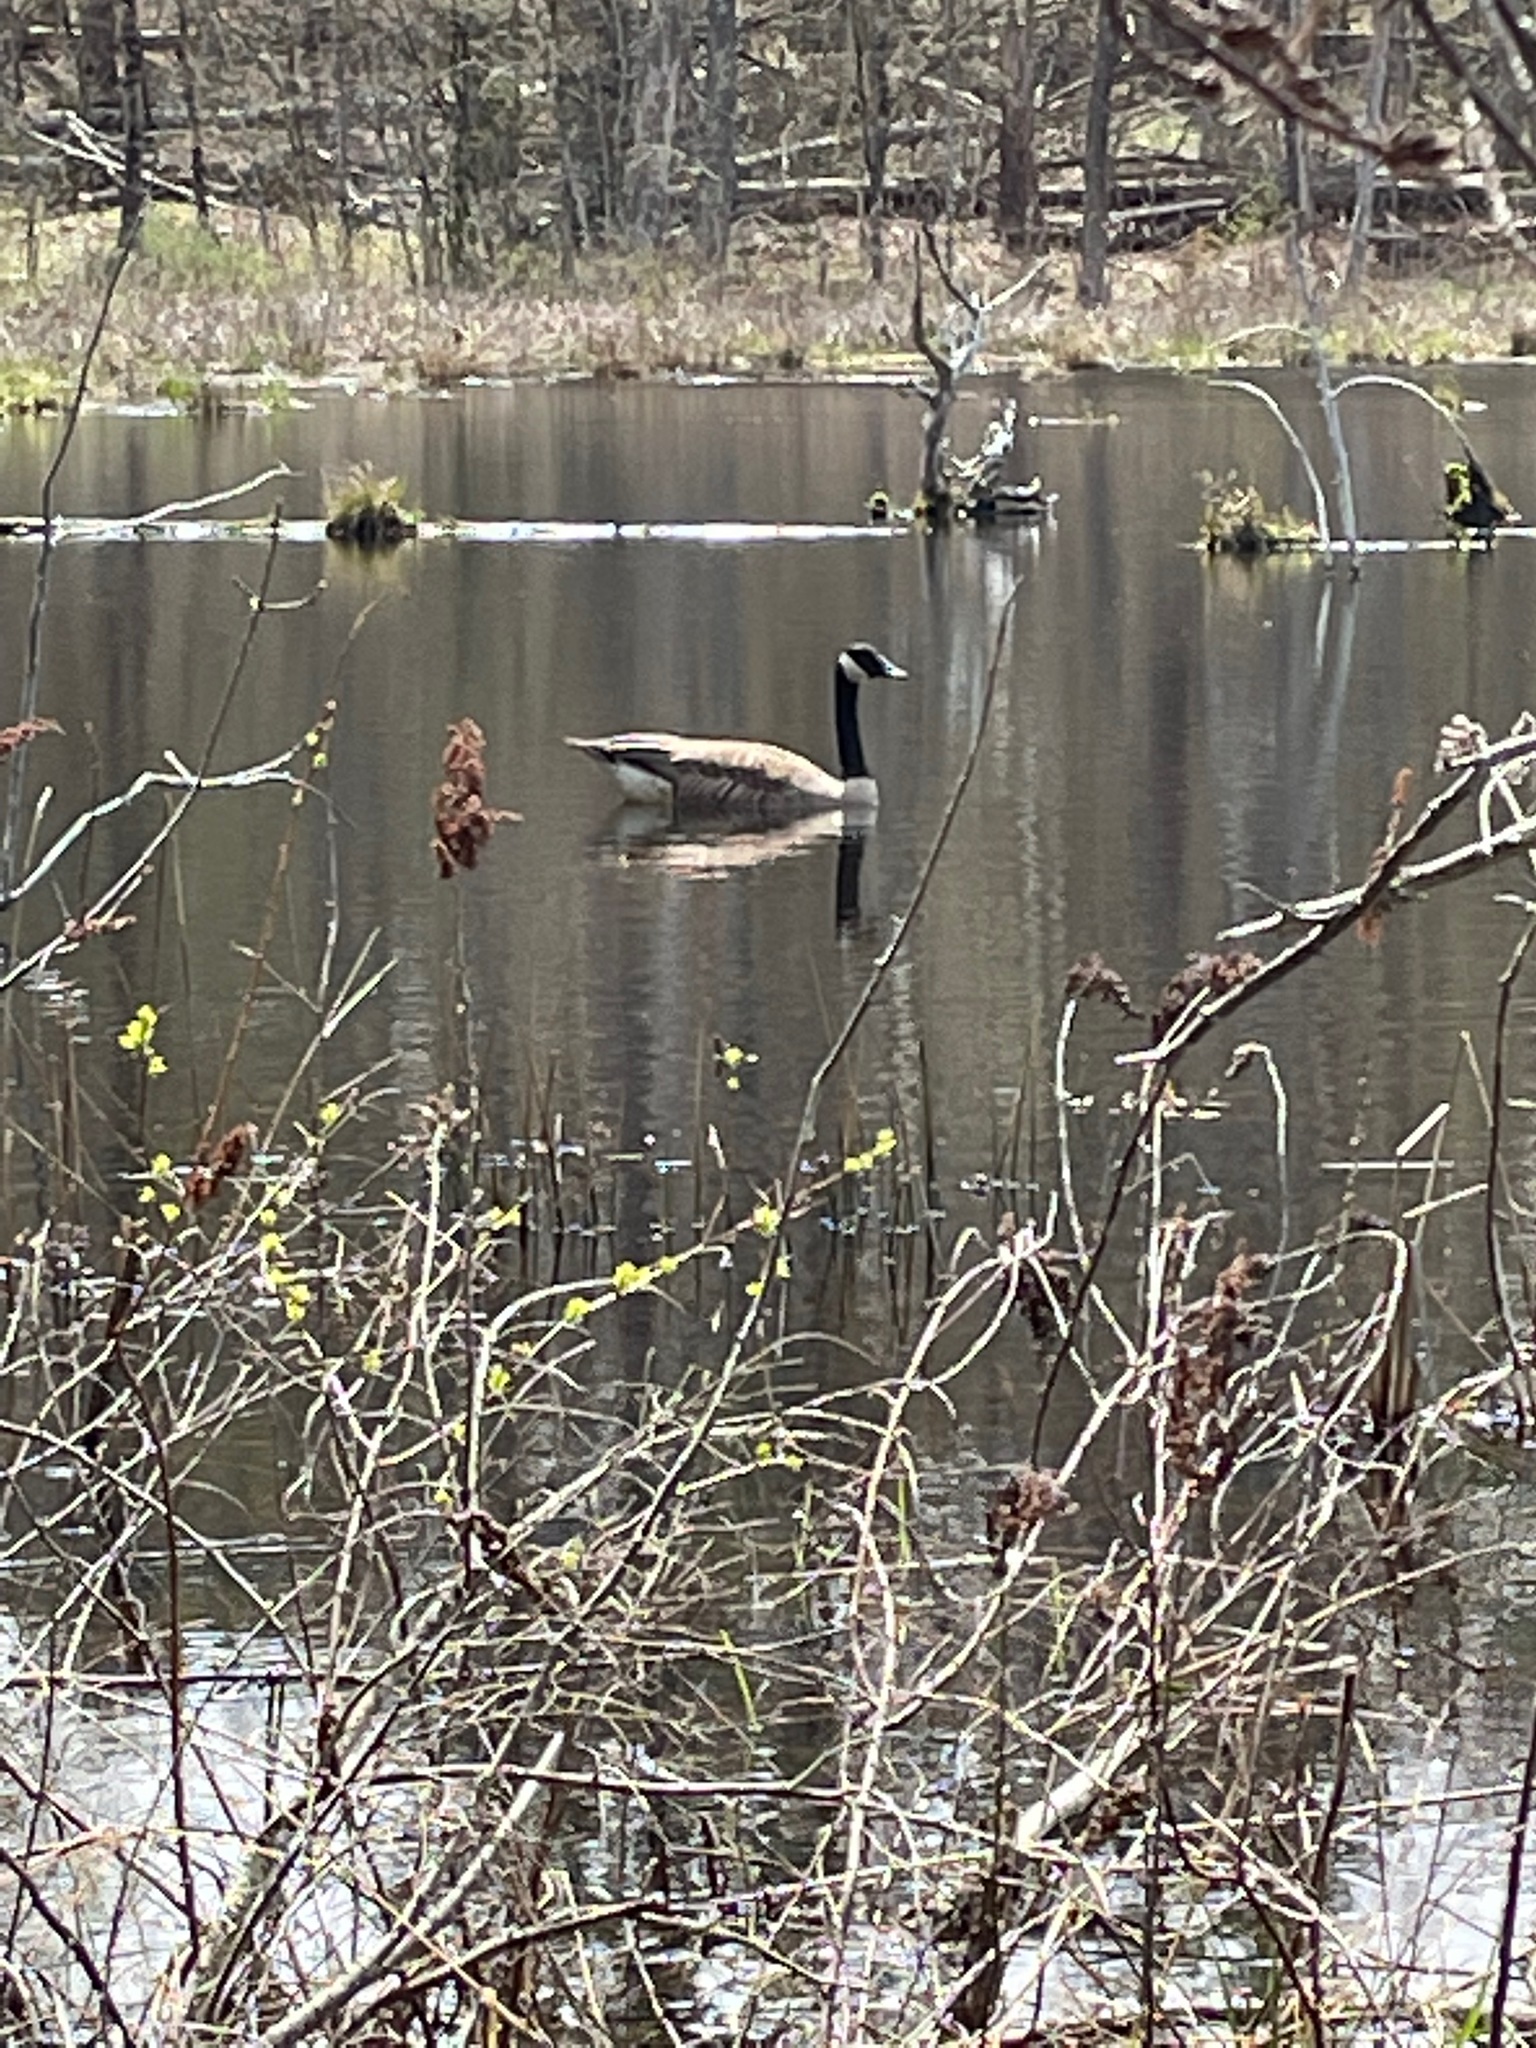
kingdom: Animalia
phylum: Chordata
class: Aves
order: Anseriformes
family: Anatidae
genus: Branta
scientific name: Branta canadensis
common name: Canada goose
